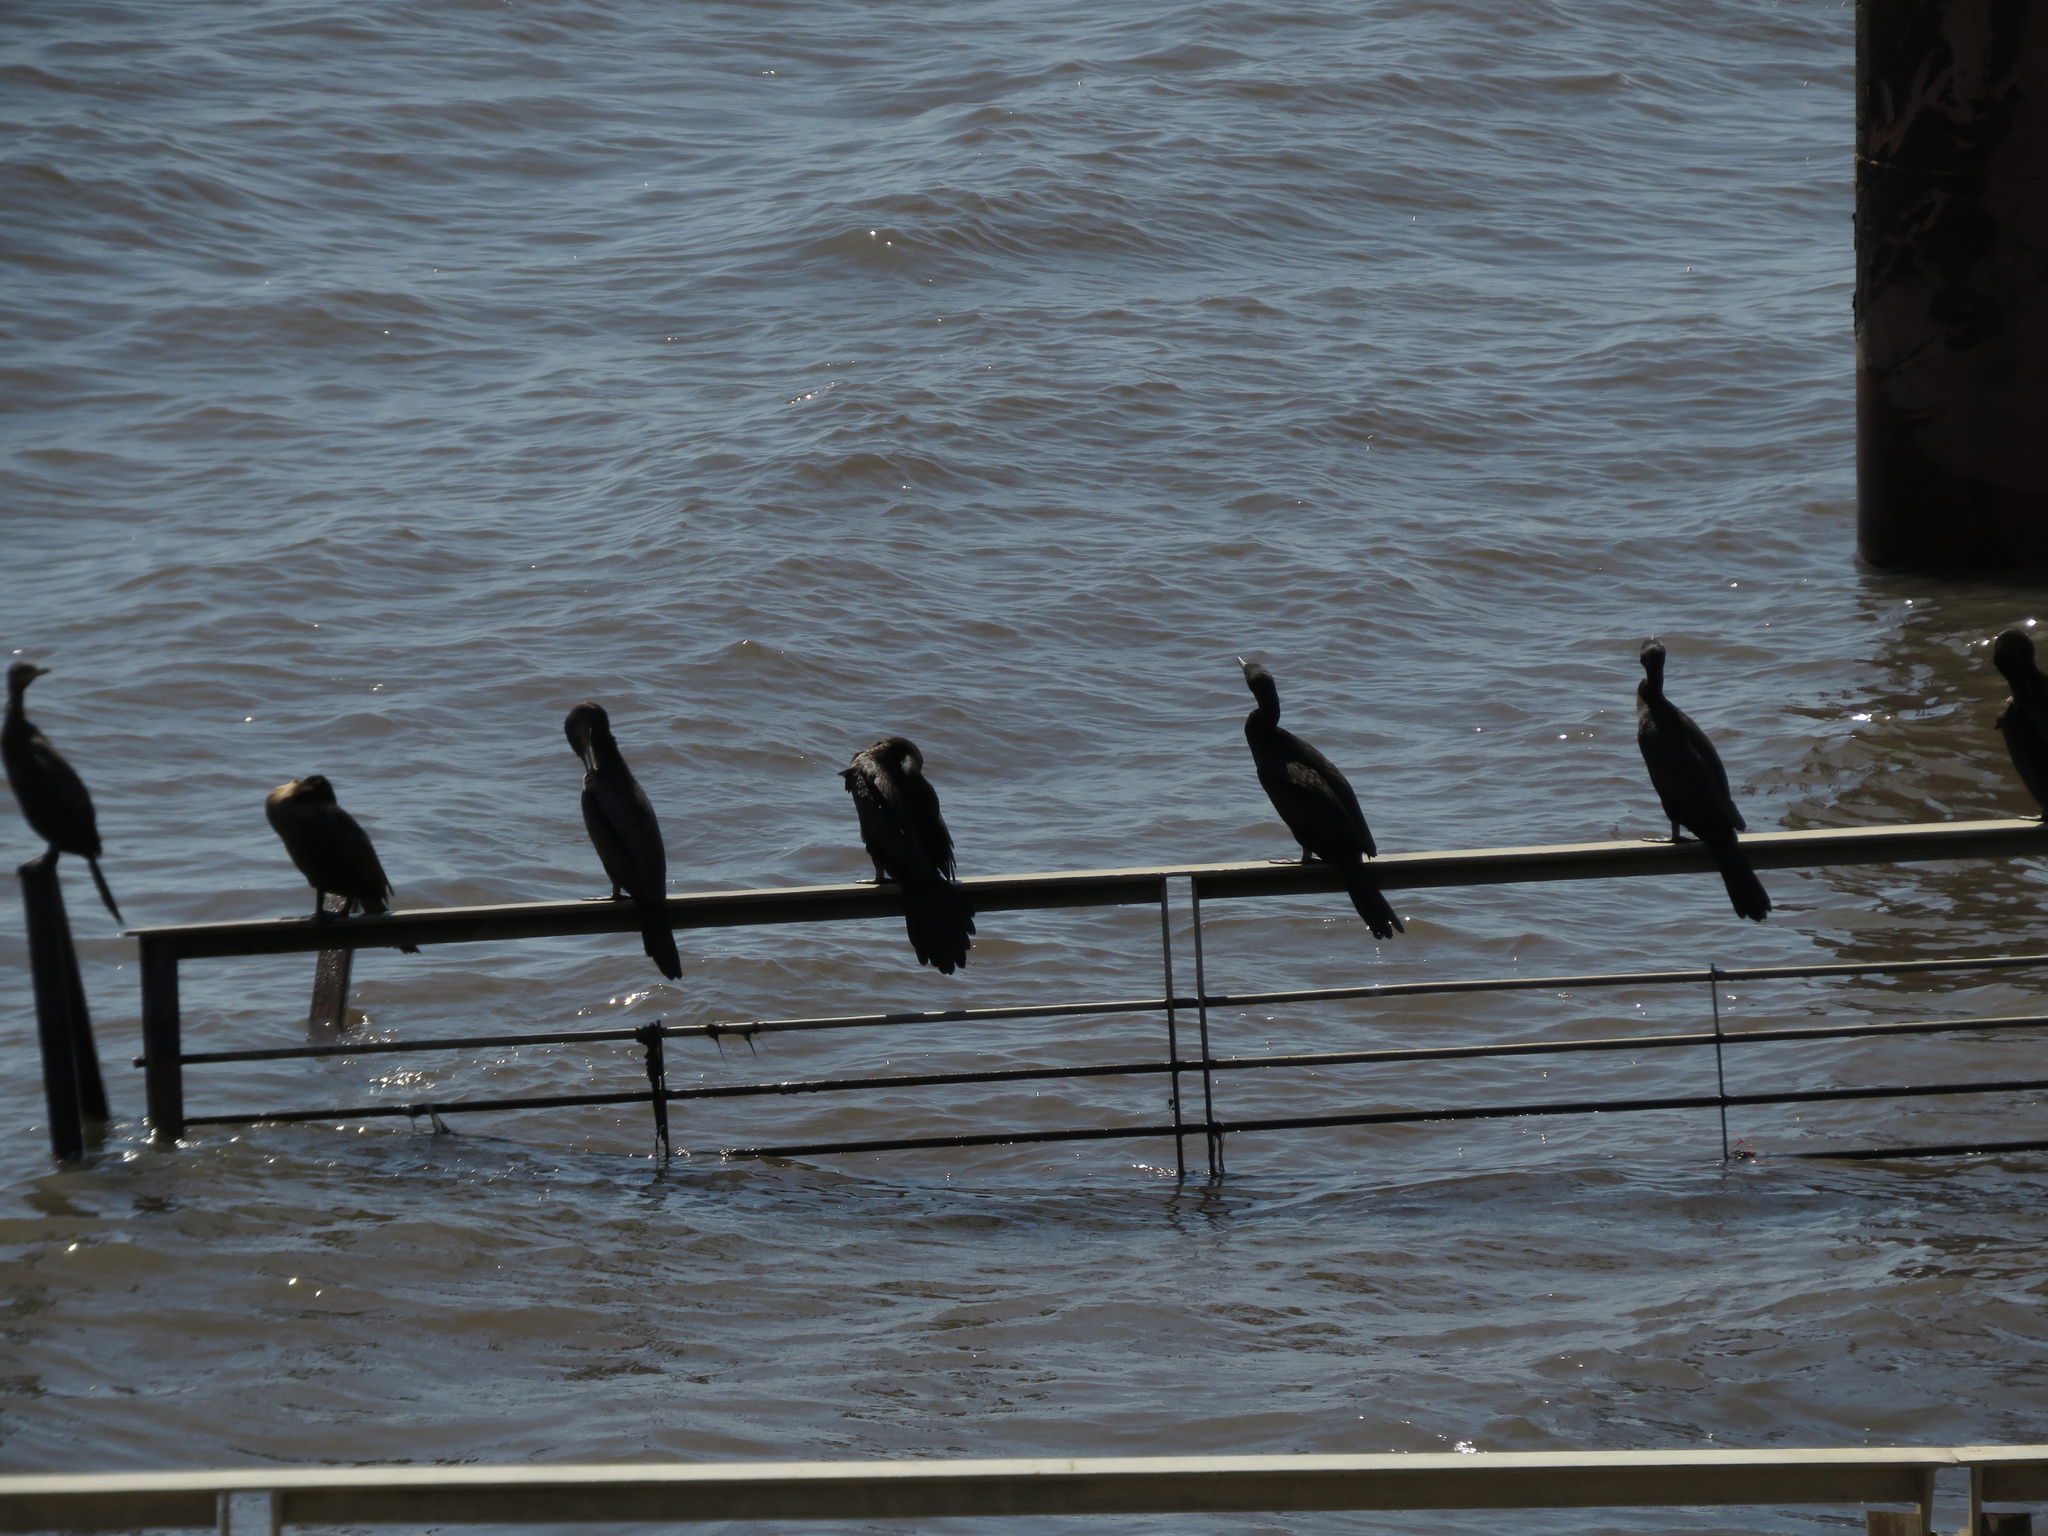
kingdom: Animalia
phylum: Chordata
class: Aves
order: Suliformes
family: Phalacrocoracidae
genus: Phalacrocorax
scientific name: Phalacrocorax brasilianus
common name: Neotropic cormorant
